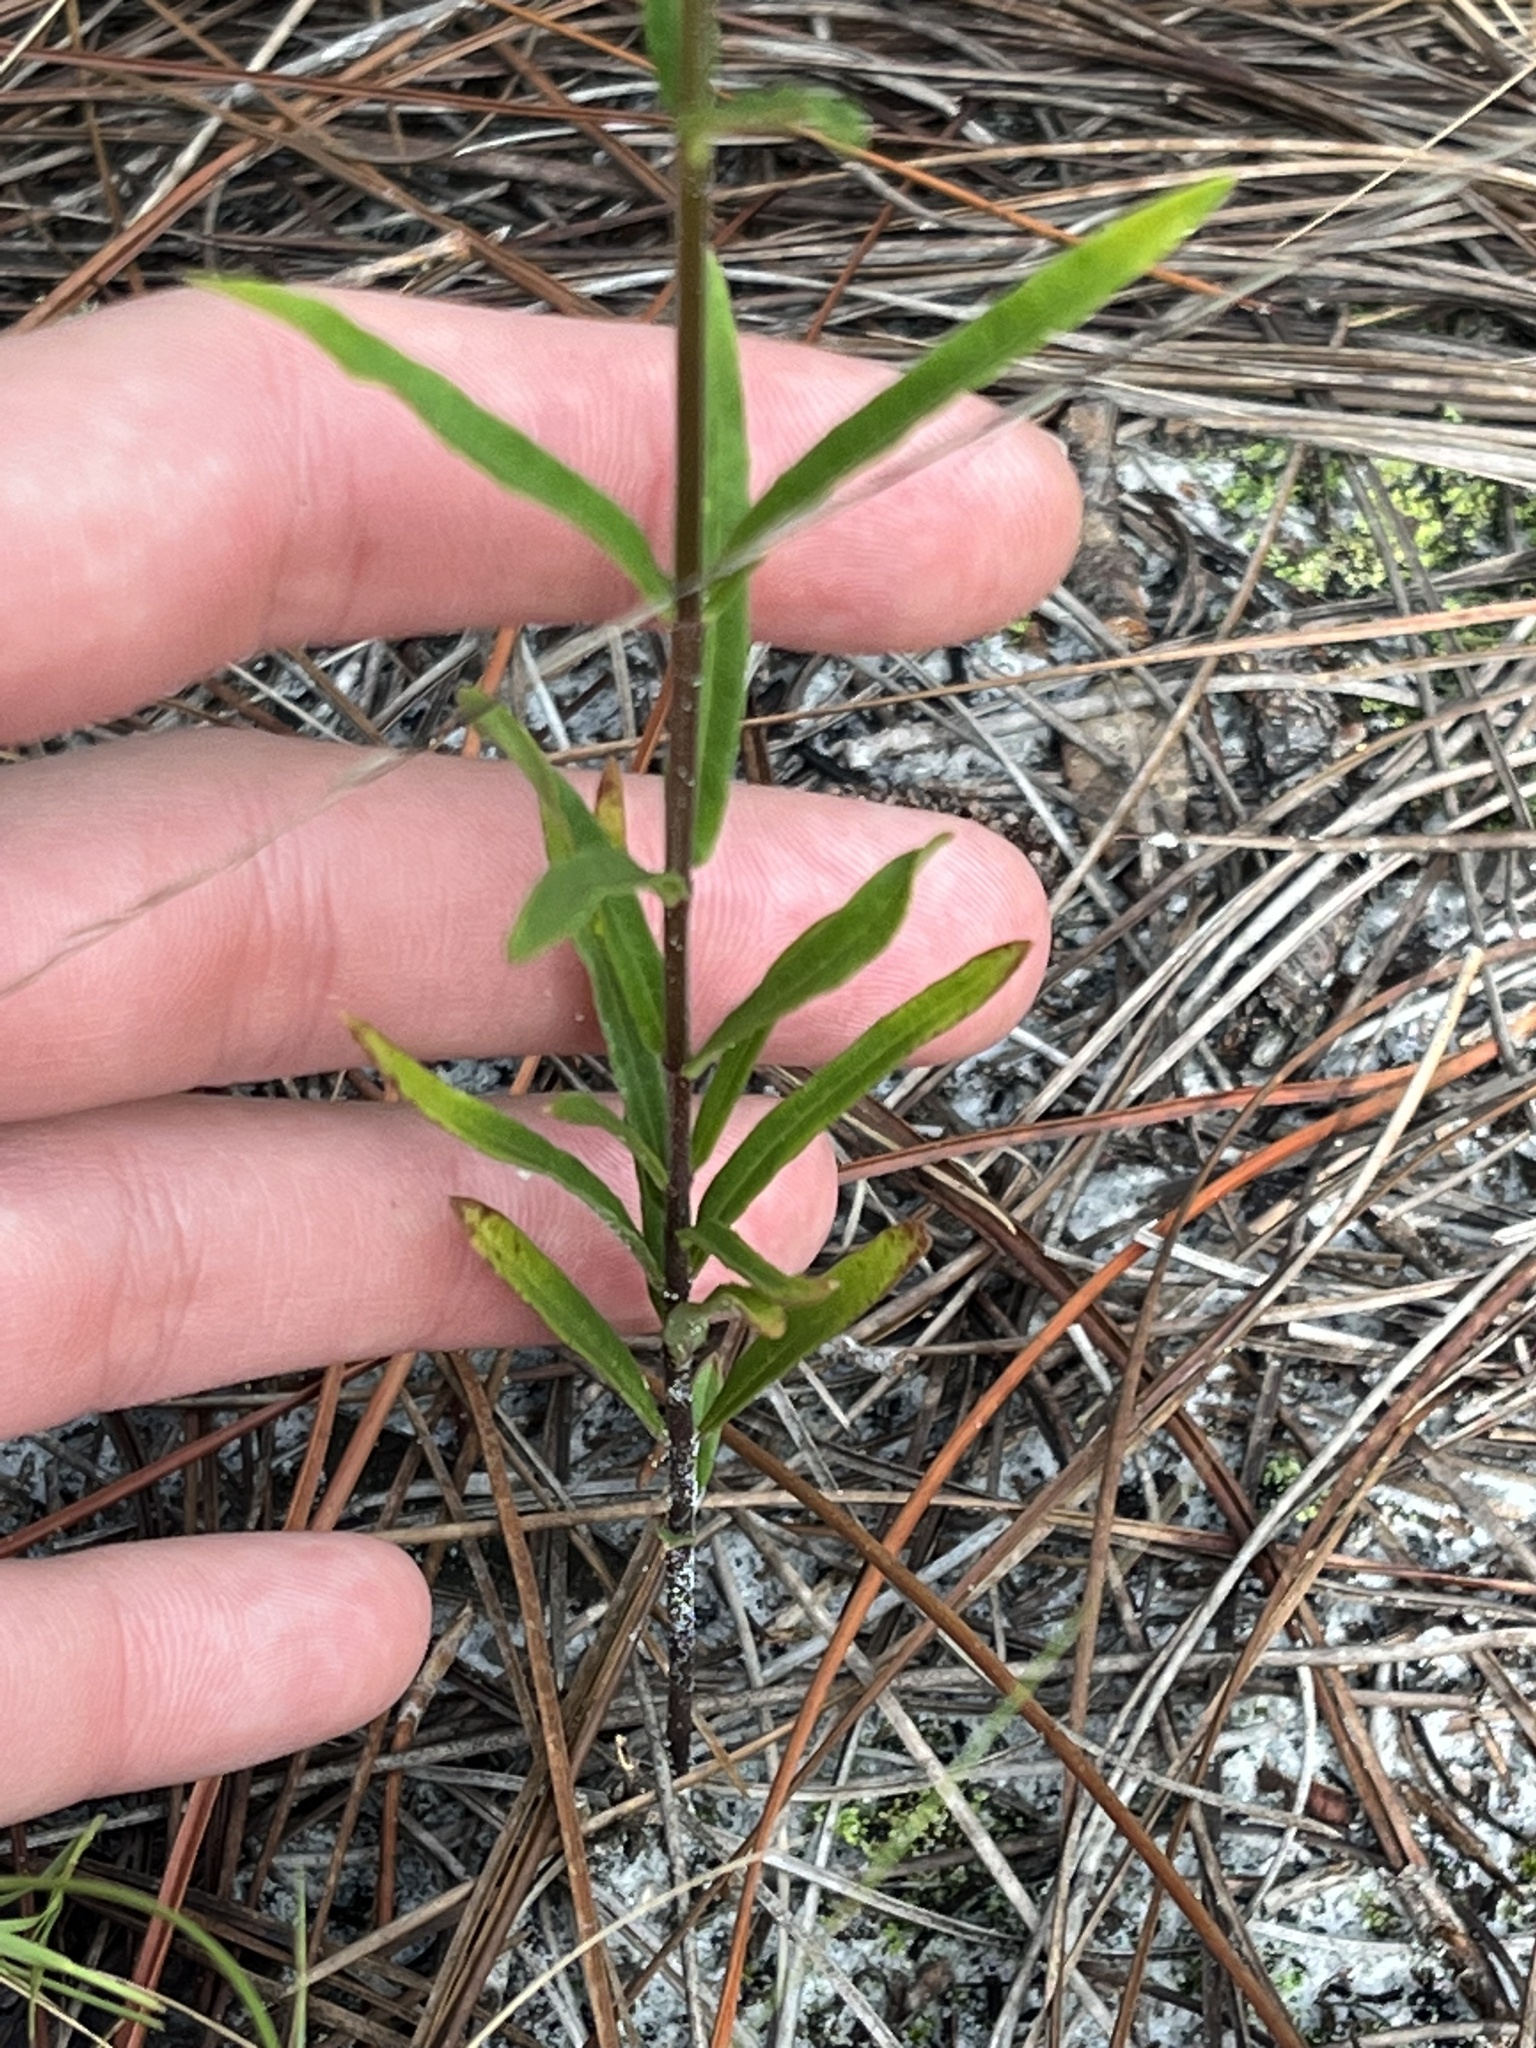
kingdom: Plantae
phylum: Tracheophyta
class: Magnoliopsida
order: Gentianales
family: Apocynaceae
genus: Asclepias
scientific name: Asclepias pedicellata
